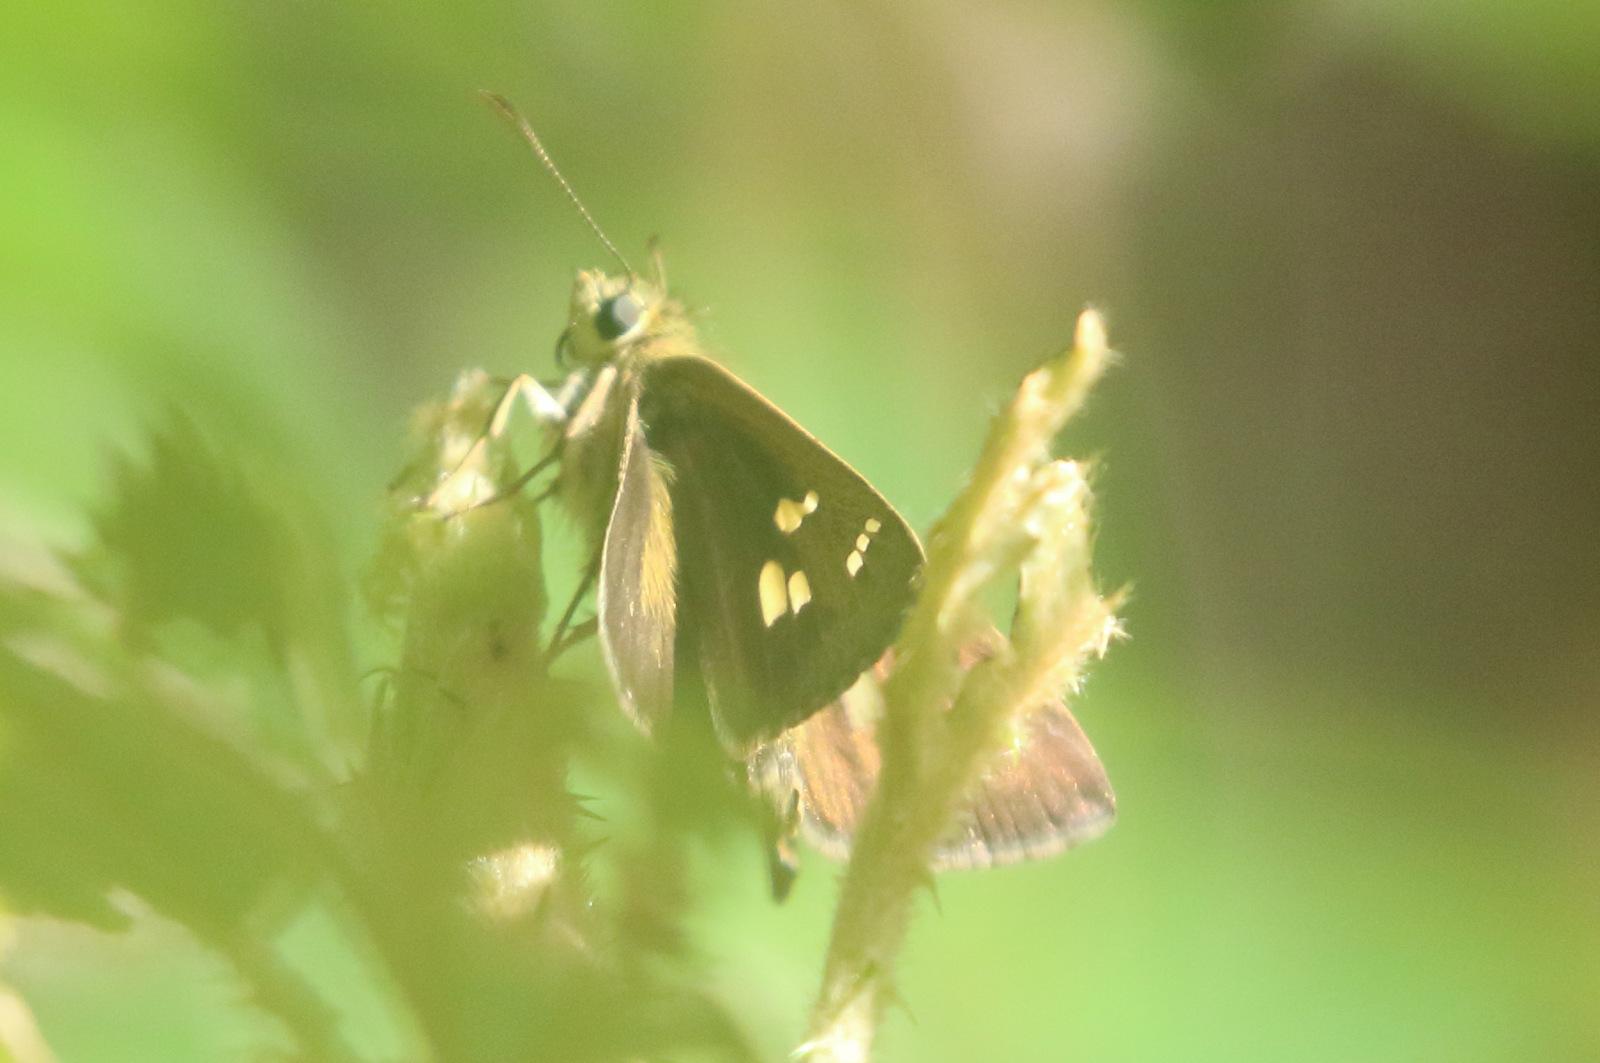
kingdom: Animalia
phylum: Arthropoda
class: Insecta
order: Lepidoptera
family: Hesperiidae
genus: Toxidia
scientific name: Toxidia
